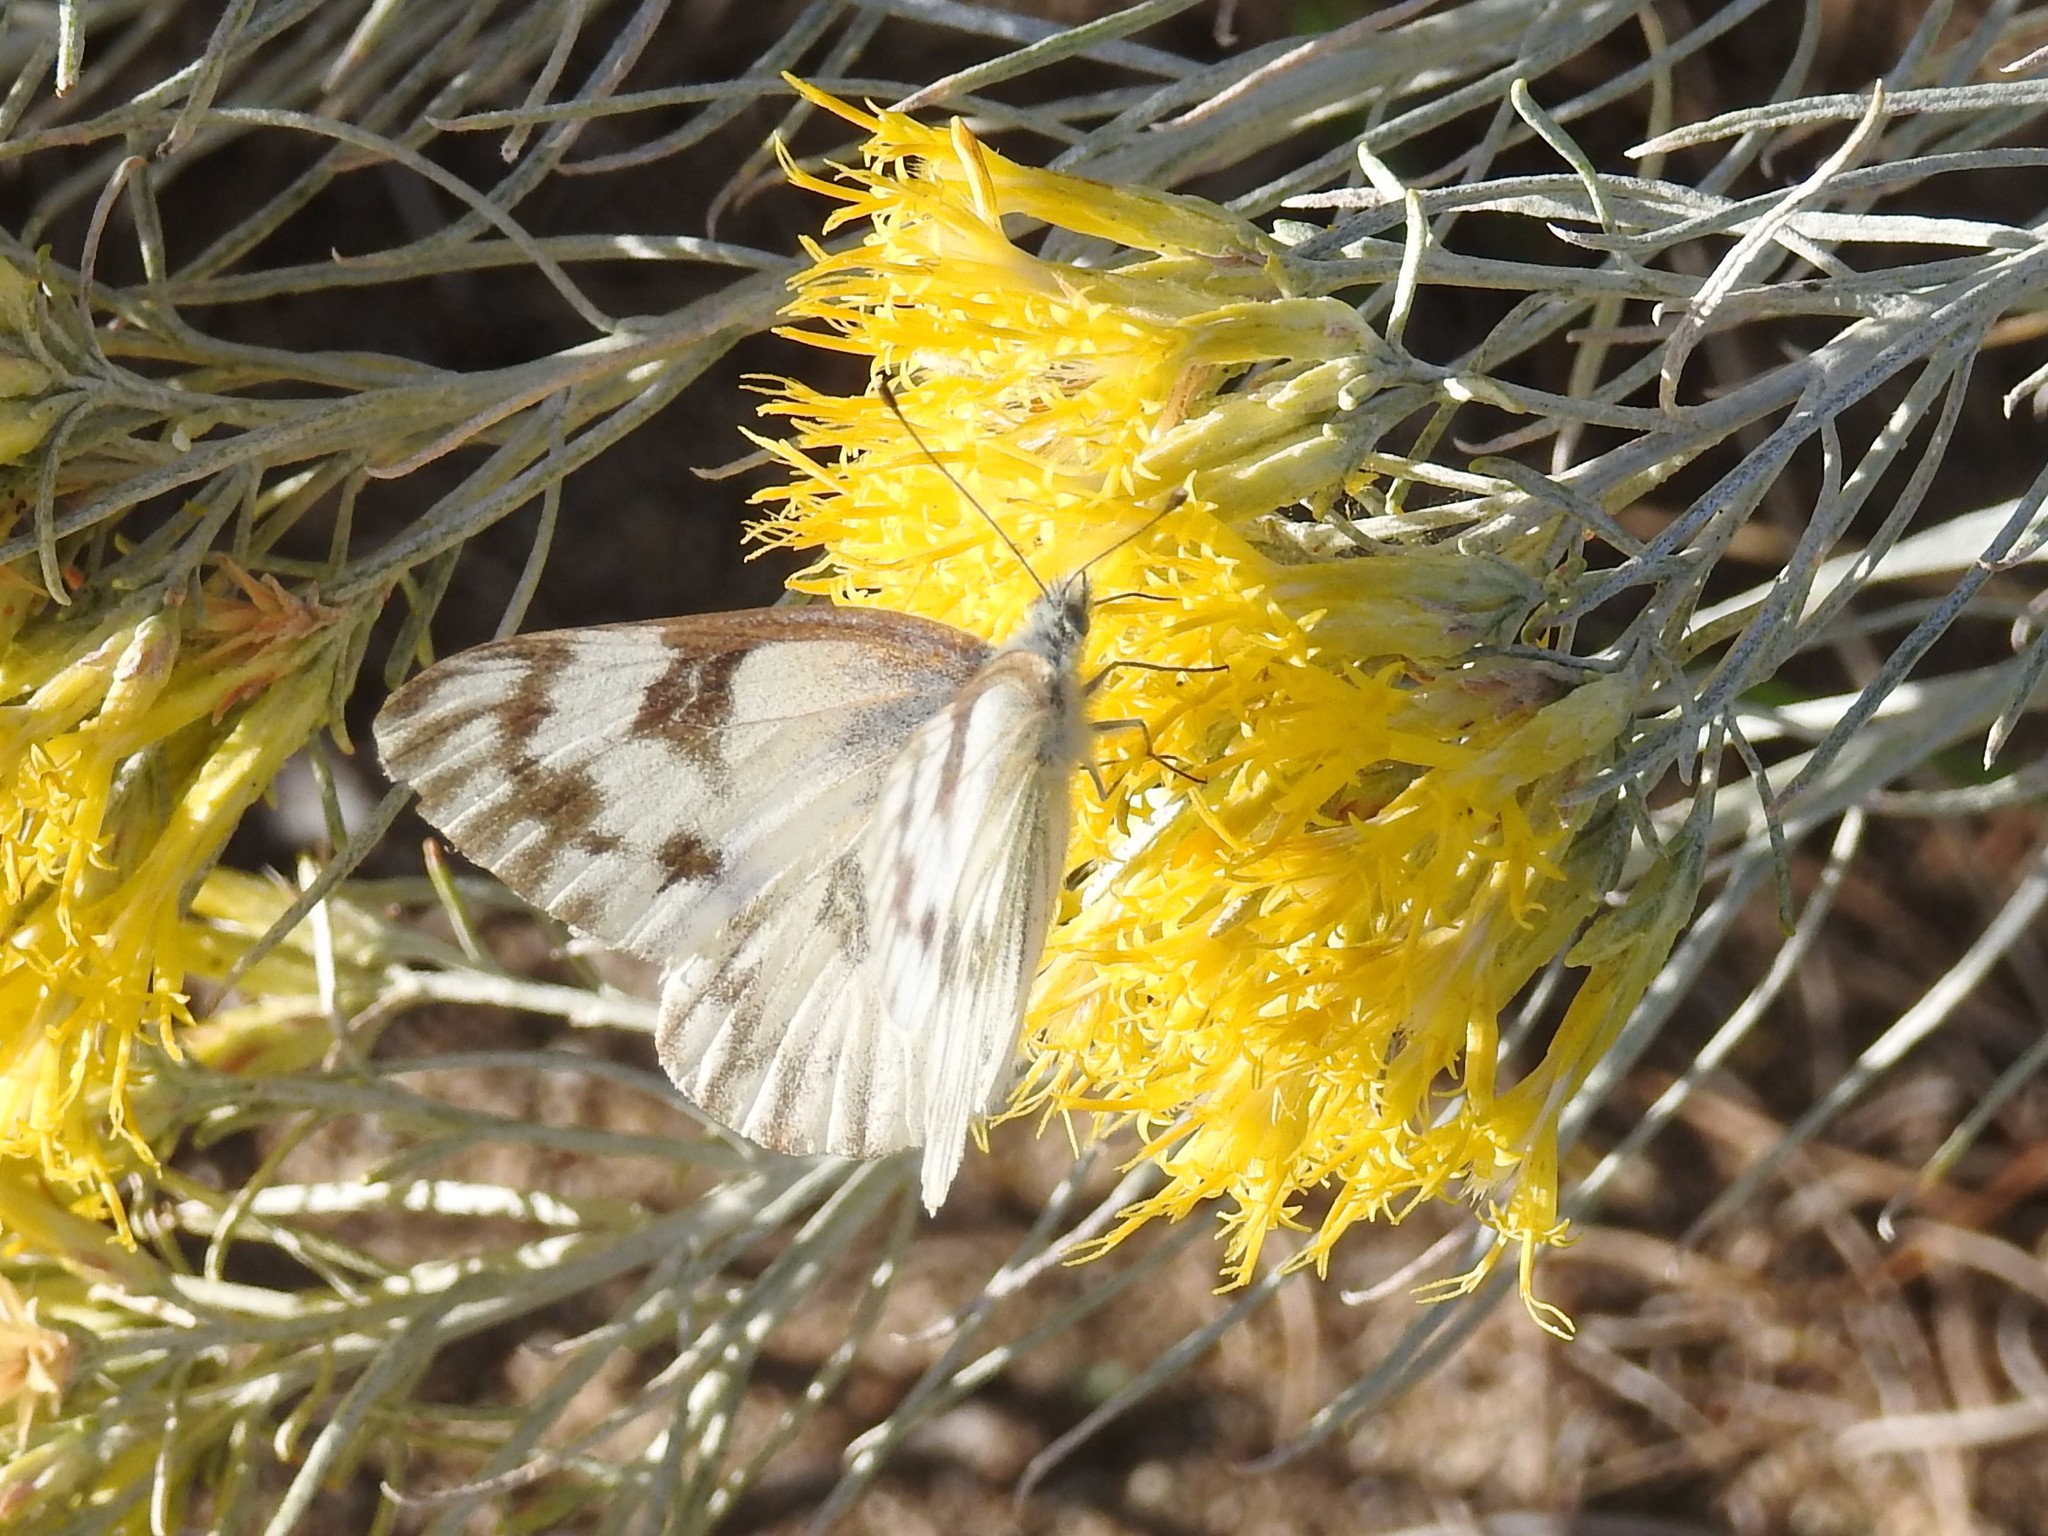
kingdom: Animalia
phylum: Arthropoda
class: Insecta
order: Lepidoptera
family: Pieridae
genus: Pontia
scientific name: Pontia occidentalis
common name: Western white
